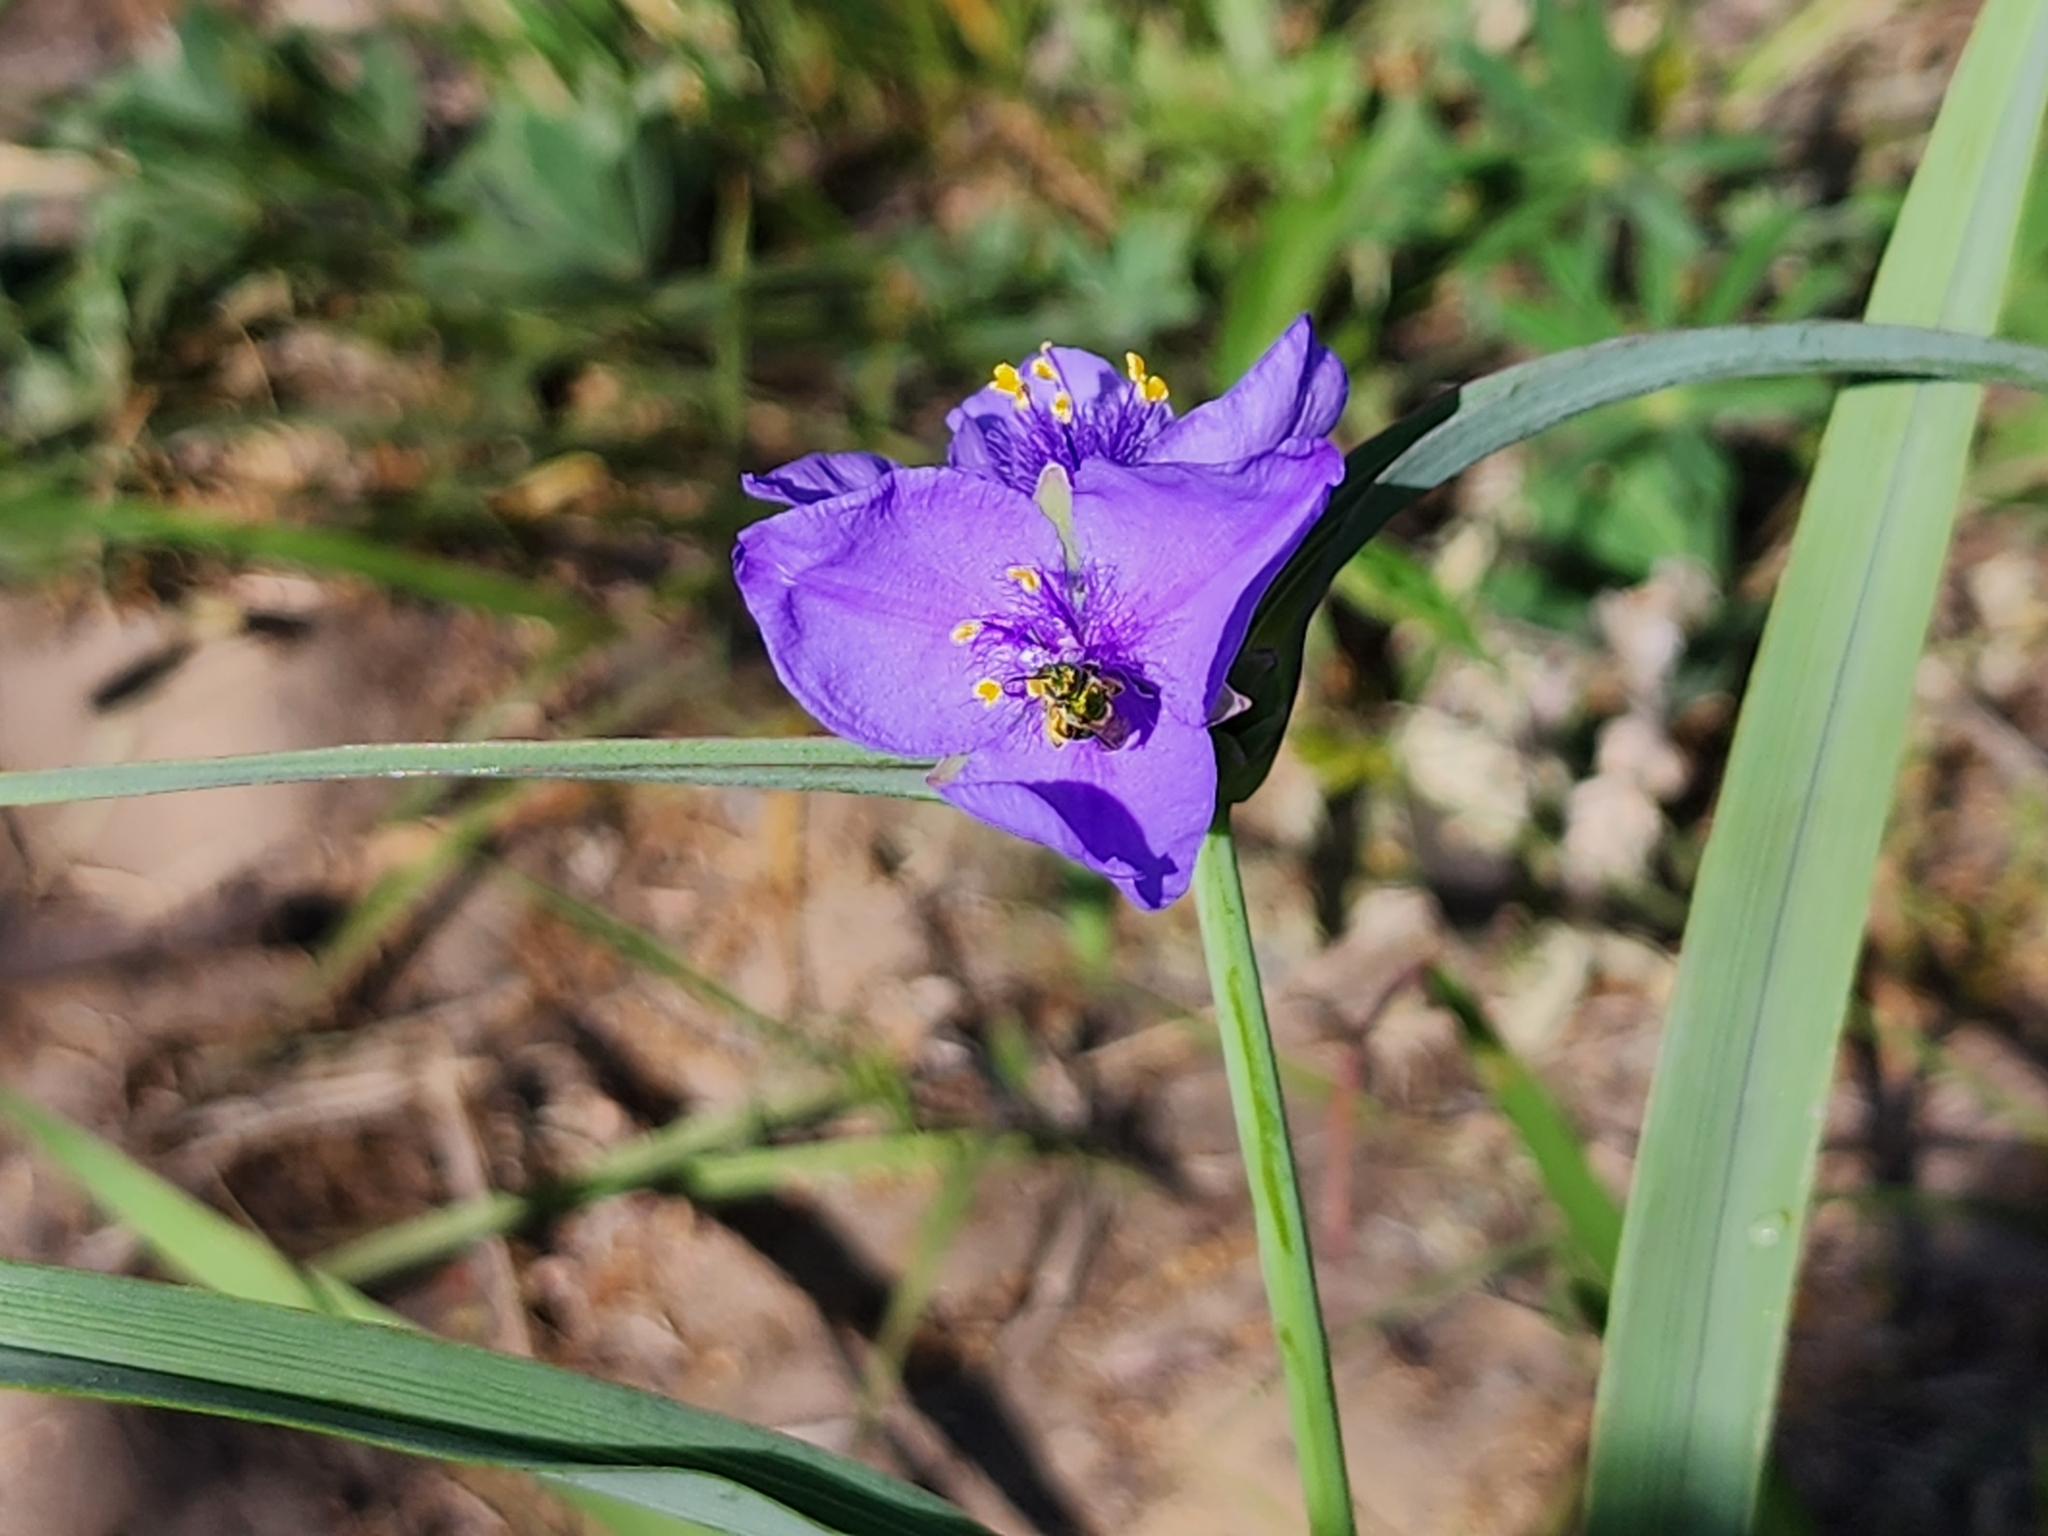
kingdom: Plantae
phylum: Tracheophyta
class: Liliopsida
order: Commelinales
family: Commelinaceae
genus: Tradescantia
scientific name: Tradescantia ohiensis
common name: Ohio spiderwort
